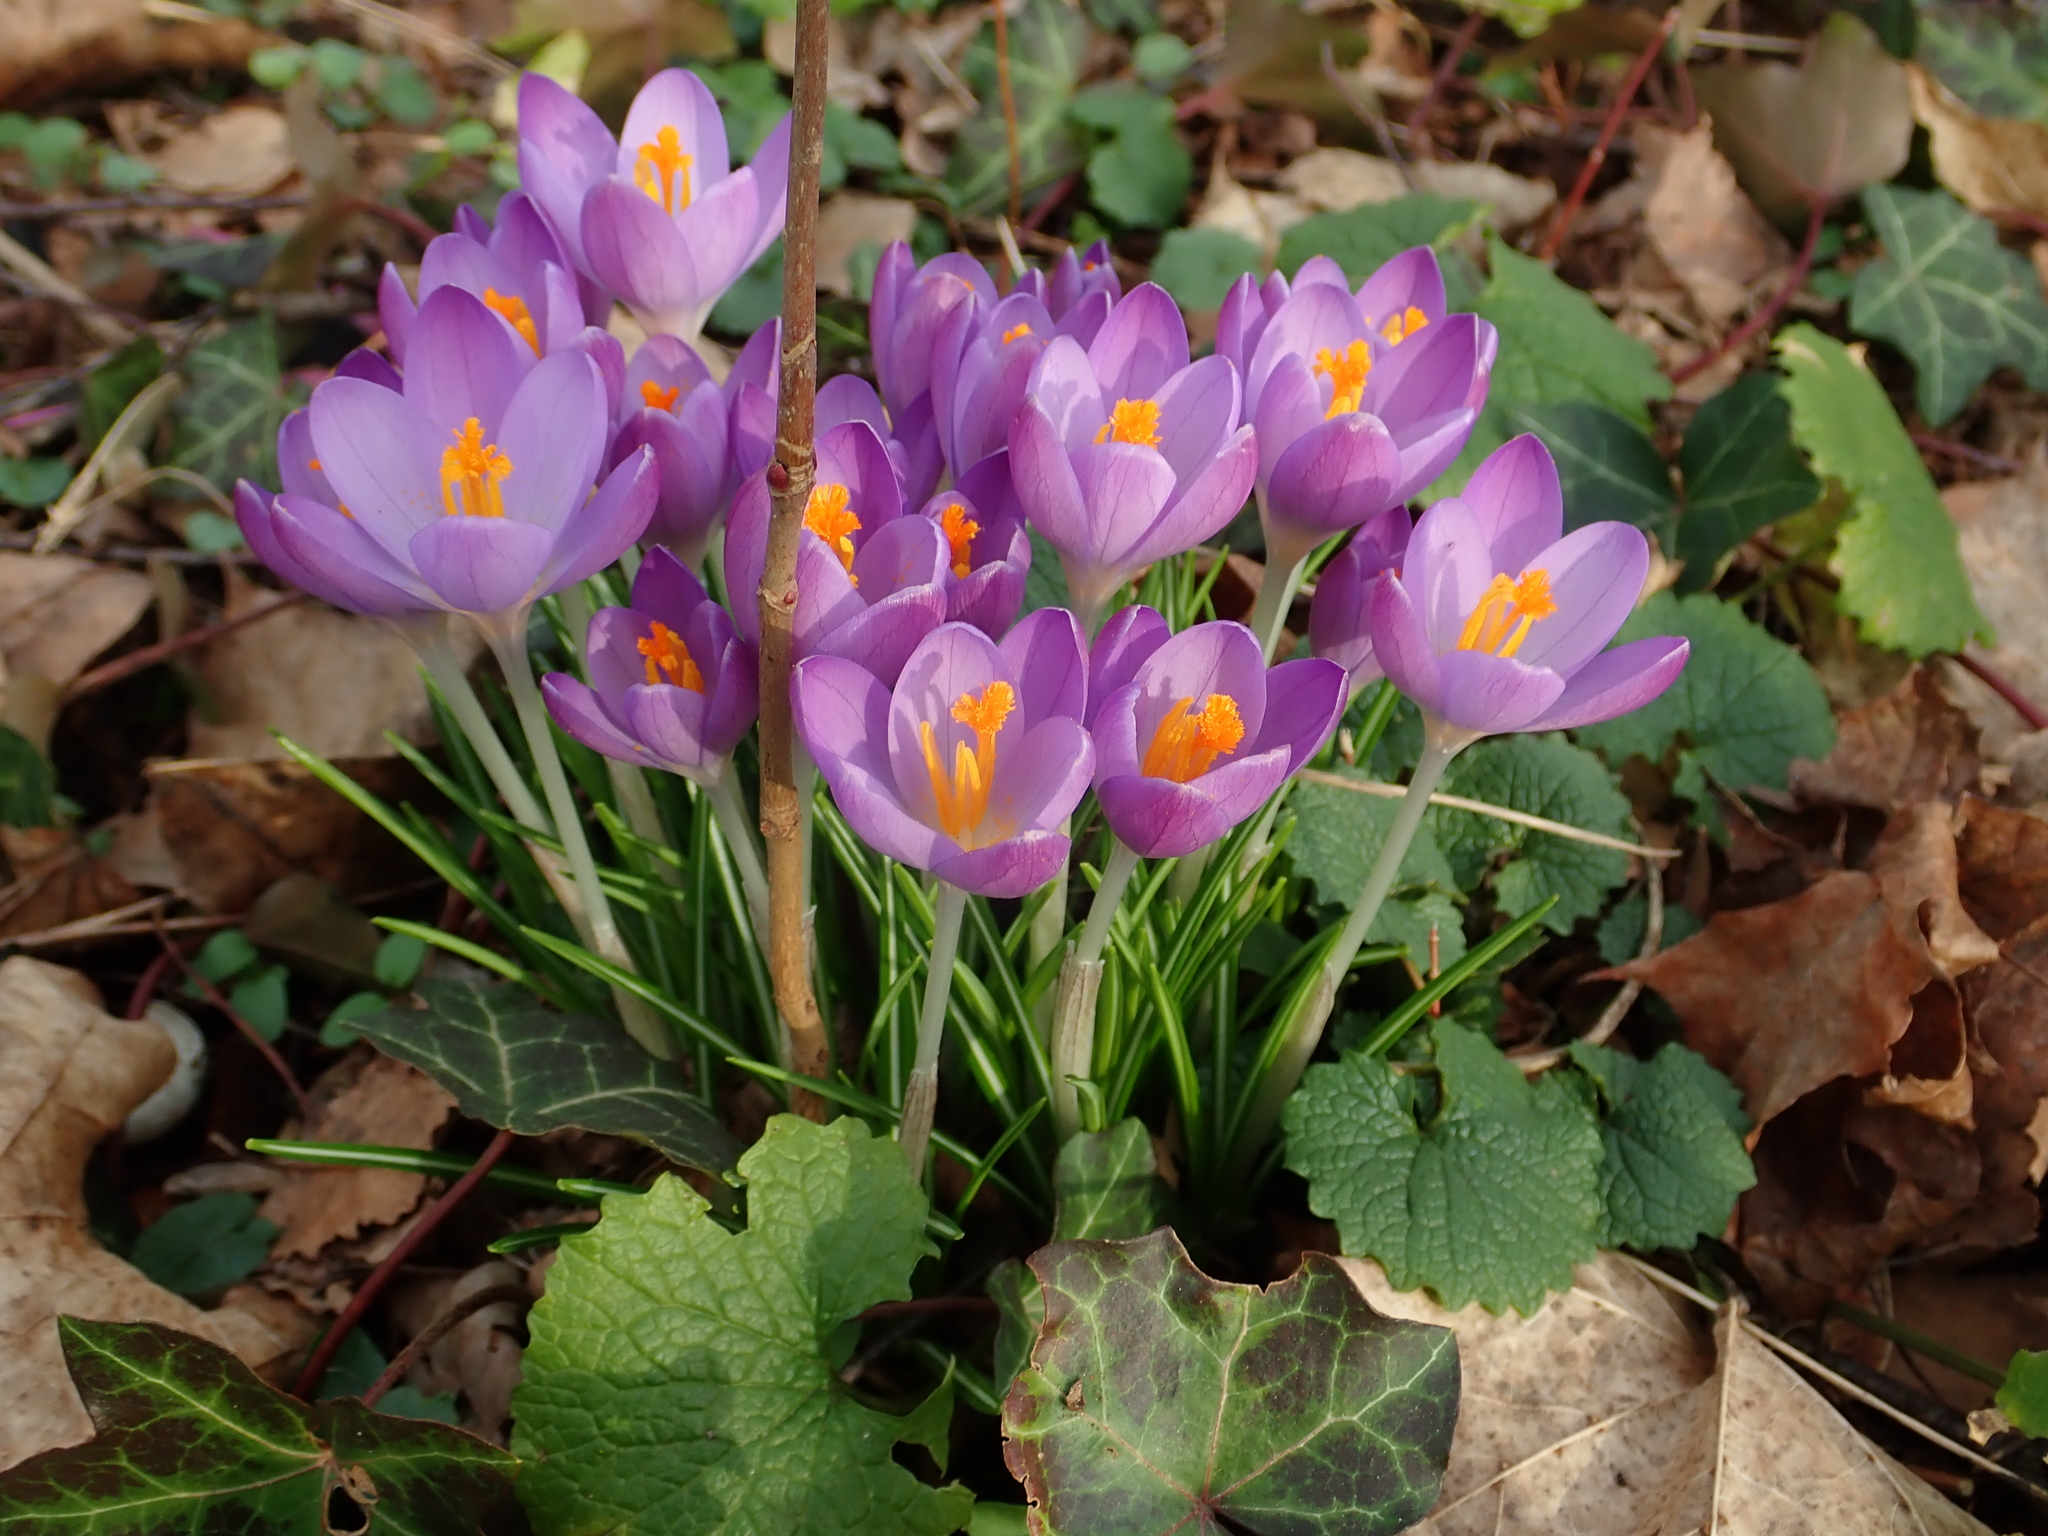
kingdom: Plantae
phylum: Tracheophyta
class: Liliopsida
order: Asparagales
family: Iridaceae
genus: Crocus
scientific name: Crocus tommasinianus
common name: Early crocus
